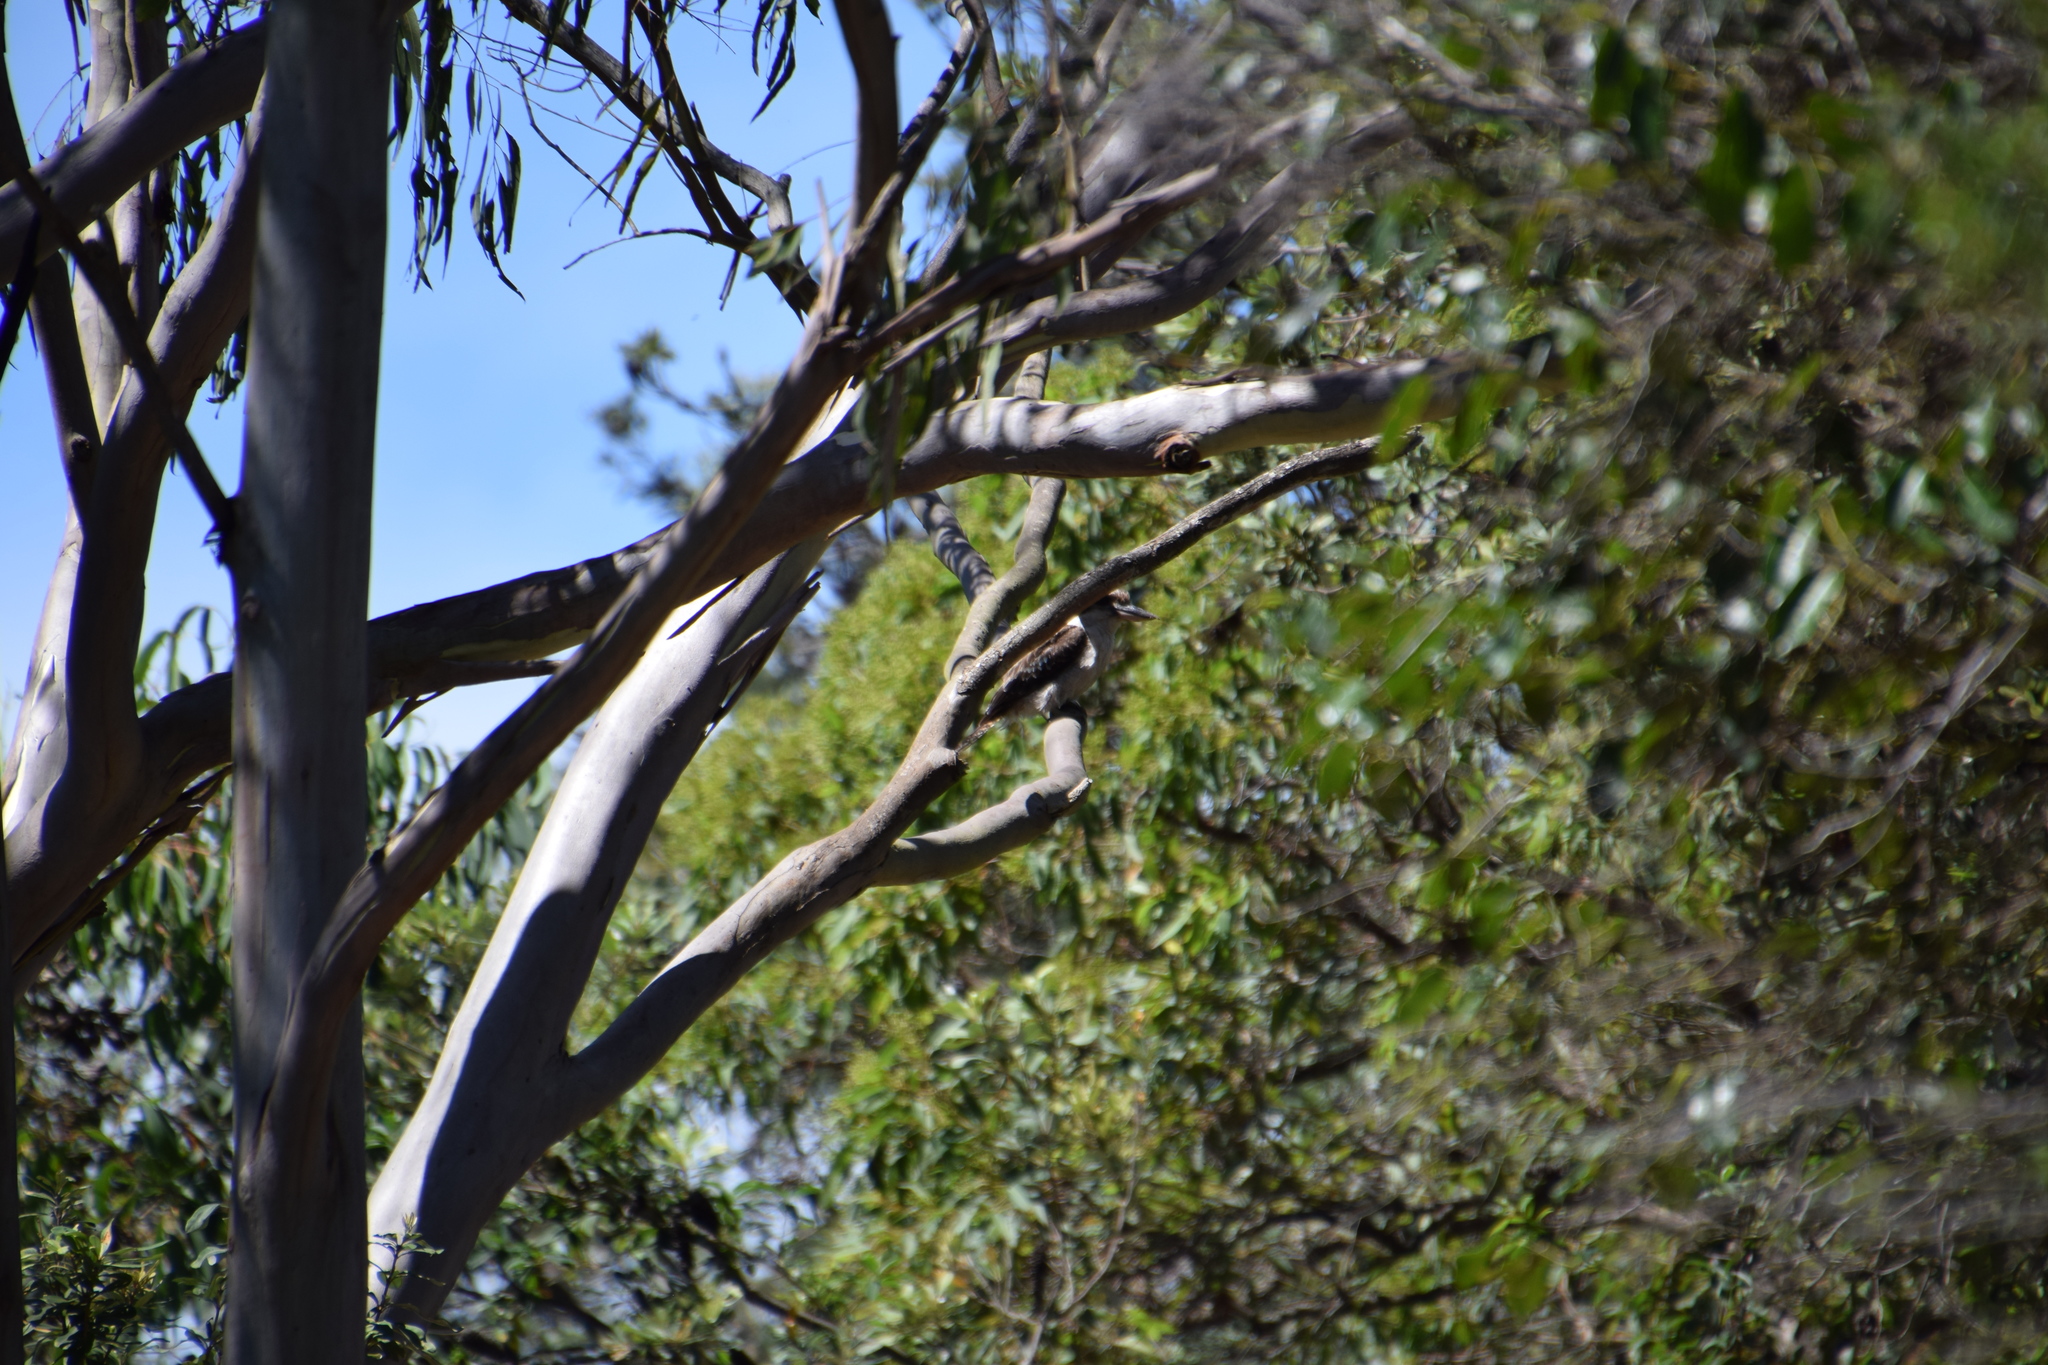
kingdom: Animalia
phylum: Chordata
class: Aves
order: Coraciiformes
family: Alcedinidae
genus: Dacelo
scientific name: Dacelo novaeguineae
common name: Laughing kookaburra
